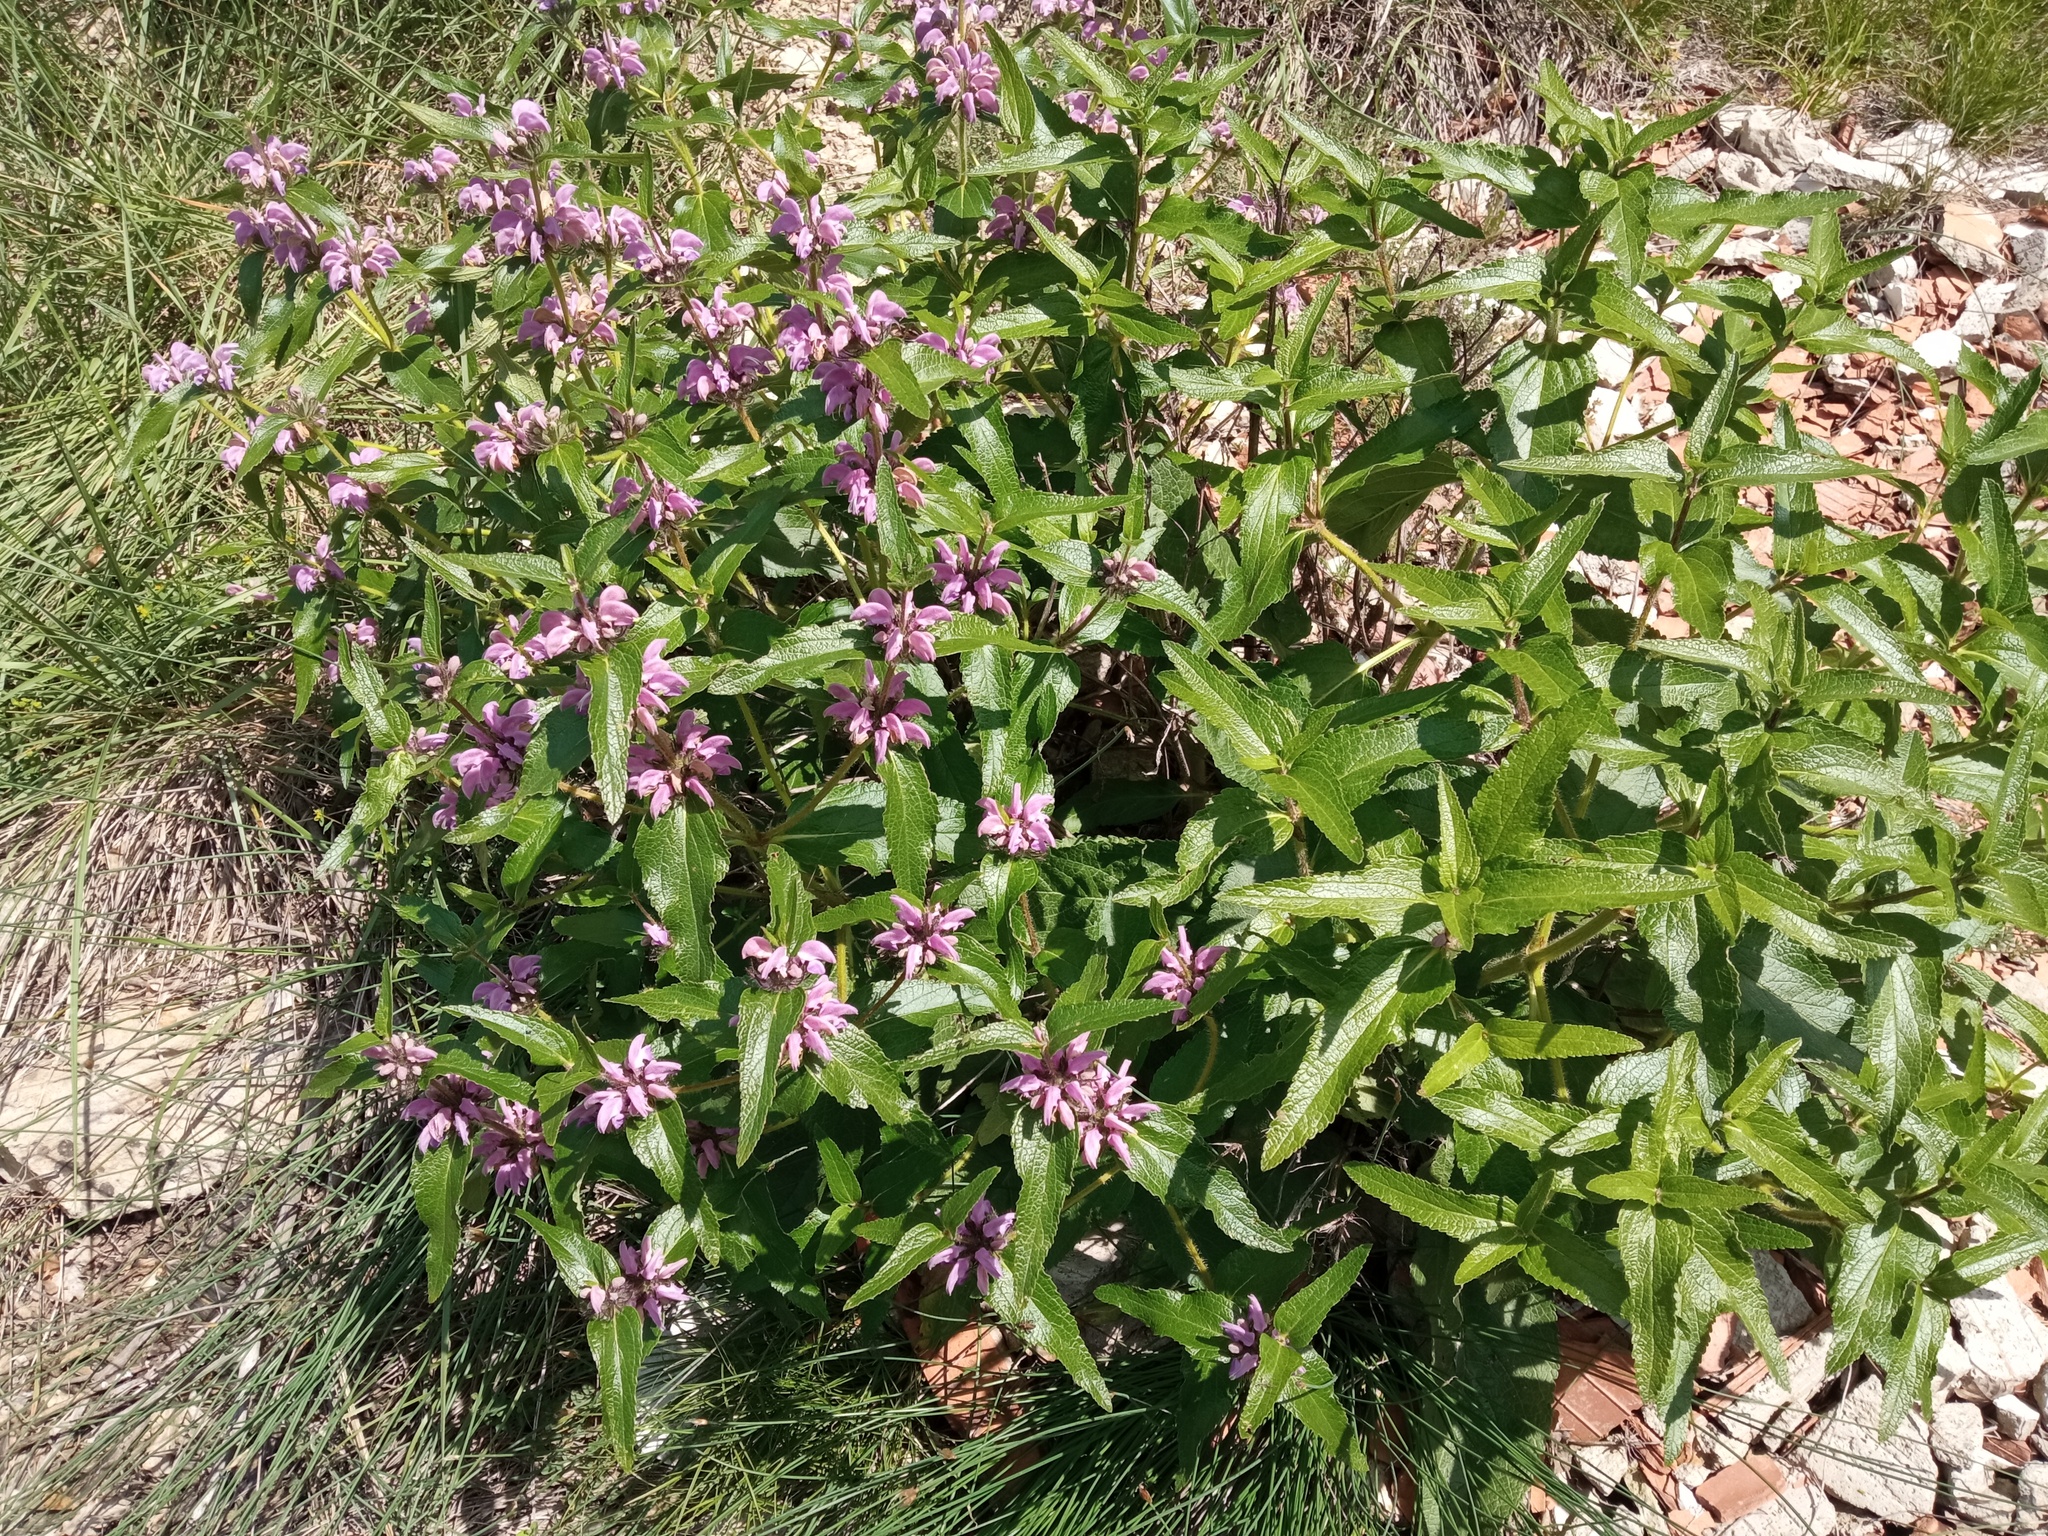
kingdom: Plantae
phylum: Tracheophyta
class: Magnoliopsida
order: Lamiales
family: Lamiaceae
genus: Phlomis
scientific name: Phlomis herba-venti
